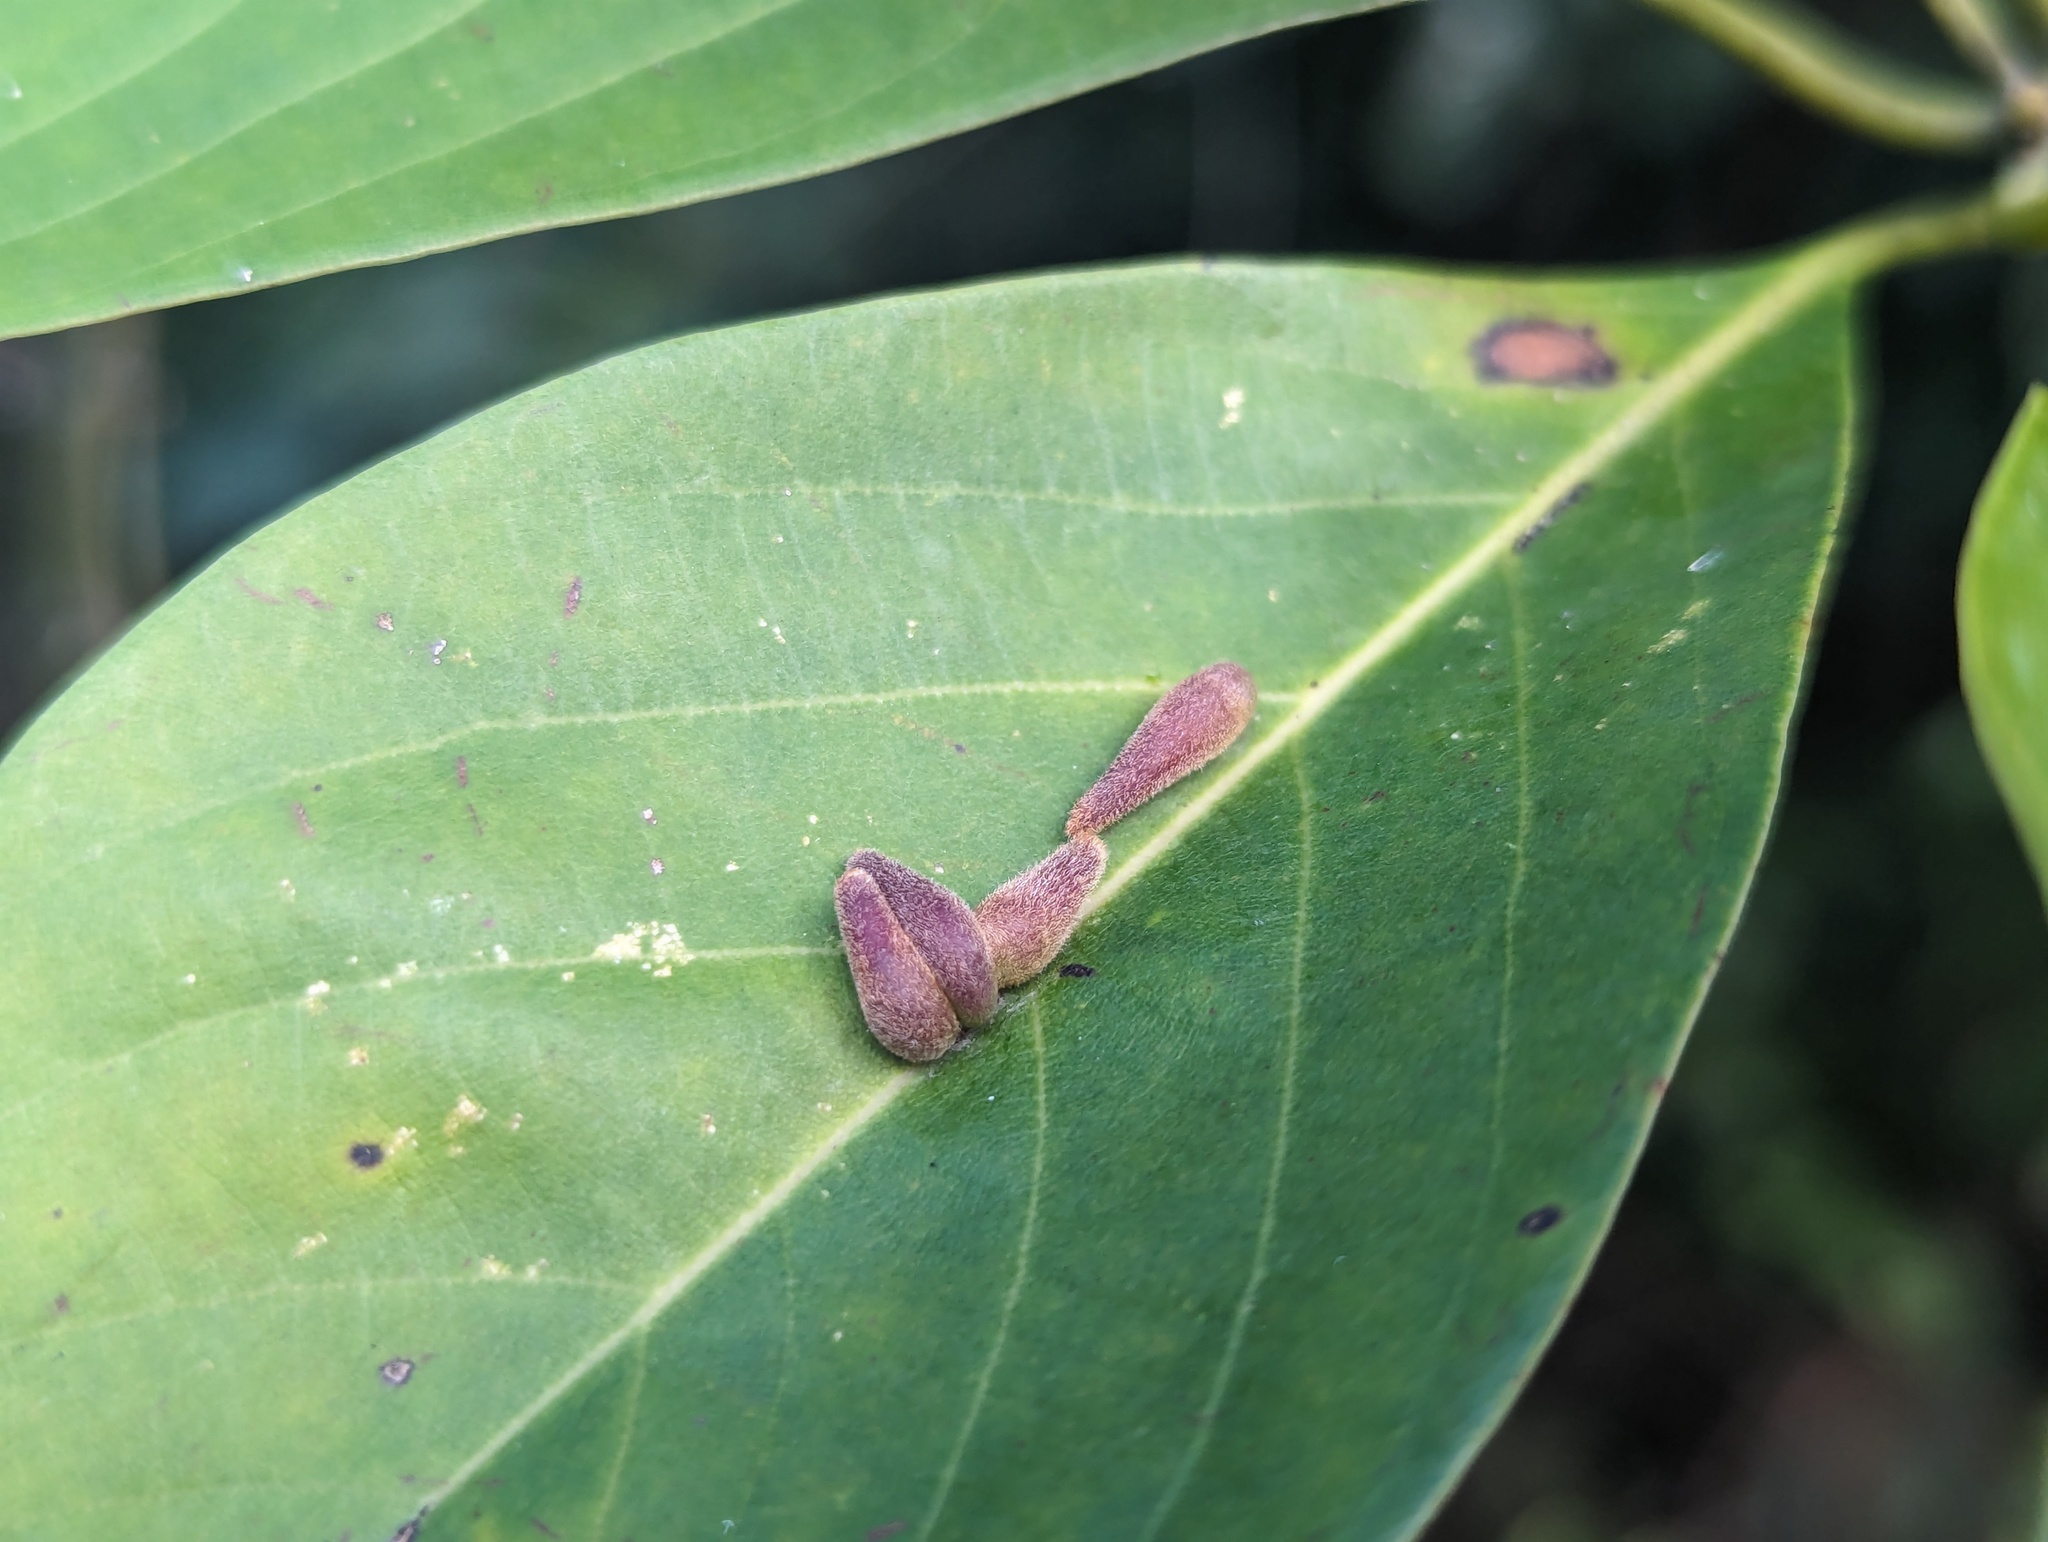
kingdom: Animalia
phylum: Arthropoda
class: Insecta
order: Diptera
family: Cecidomyiidae
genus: Daphnephila
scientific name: Daphnephila taiwanensis
